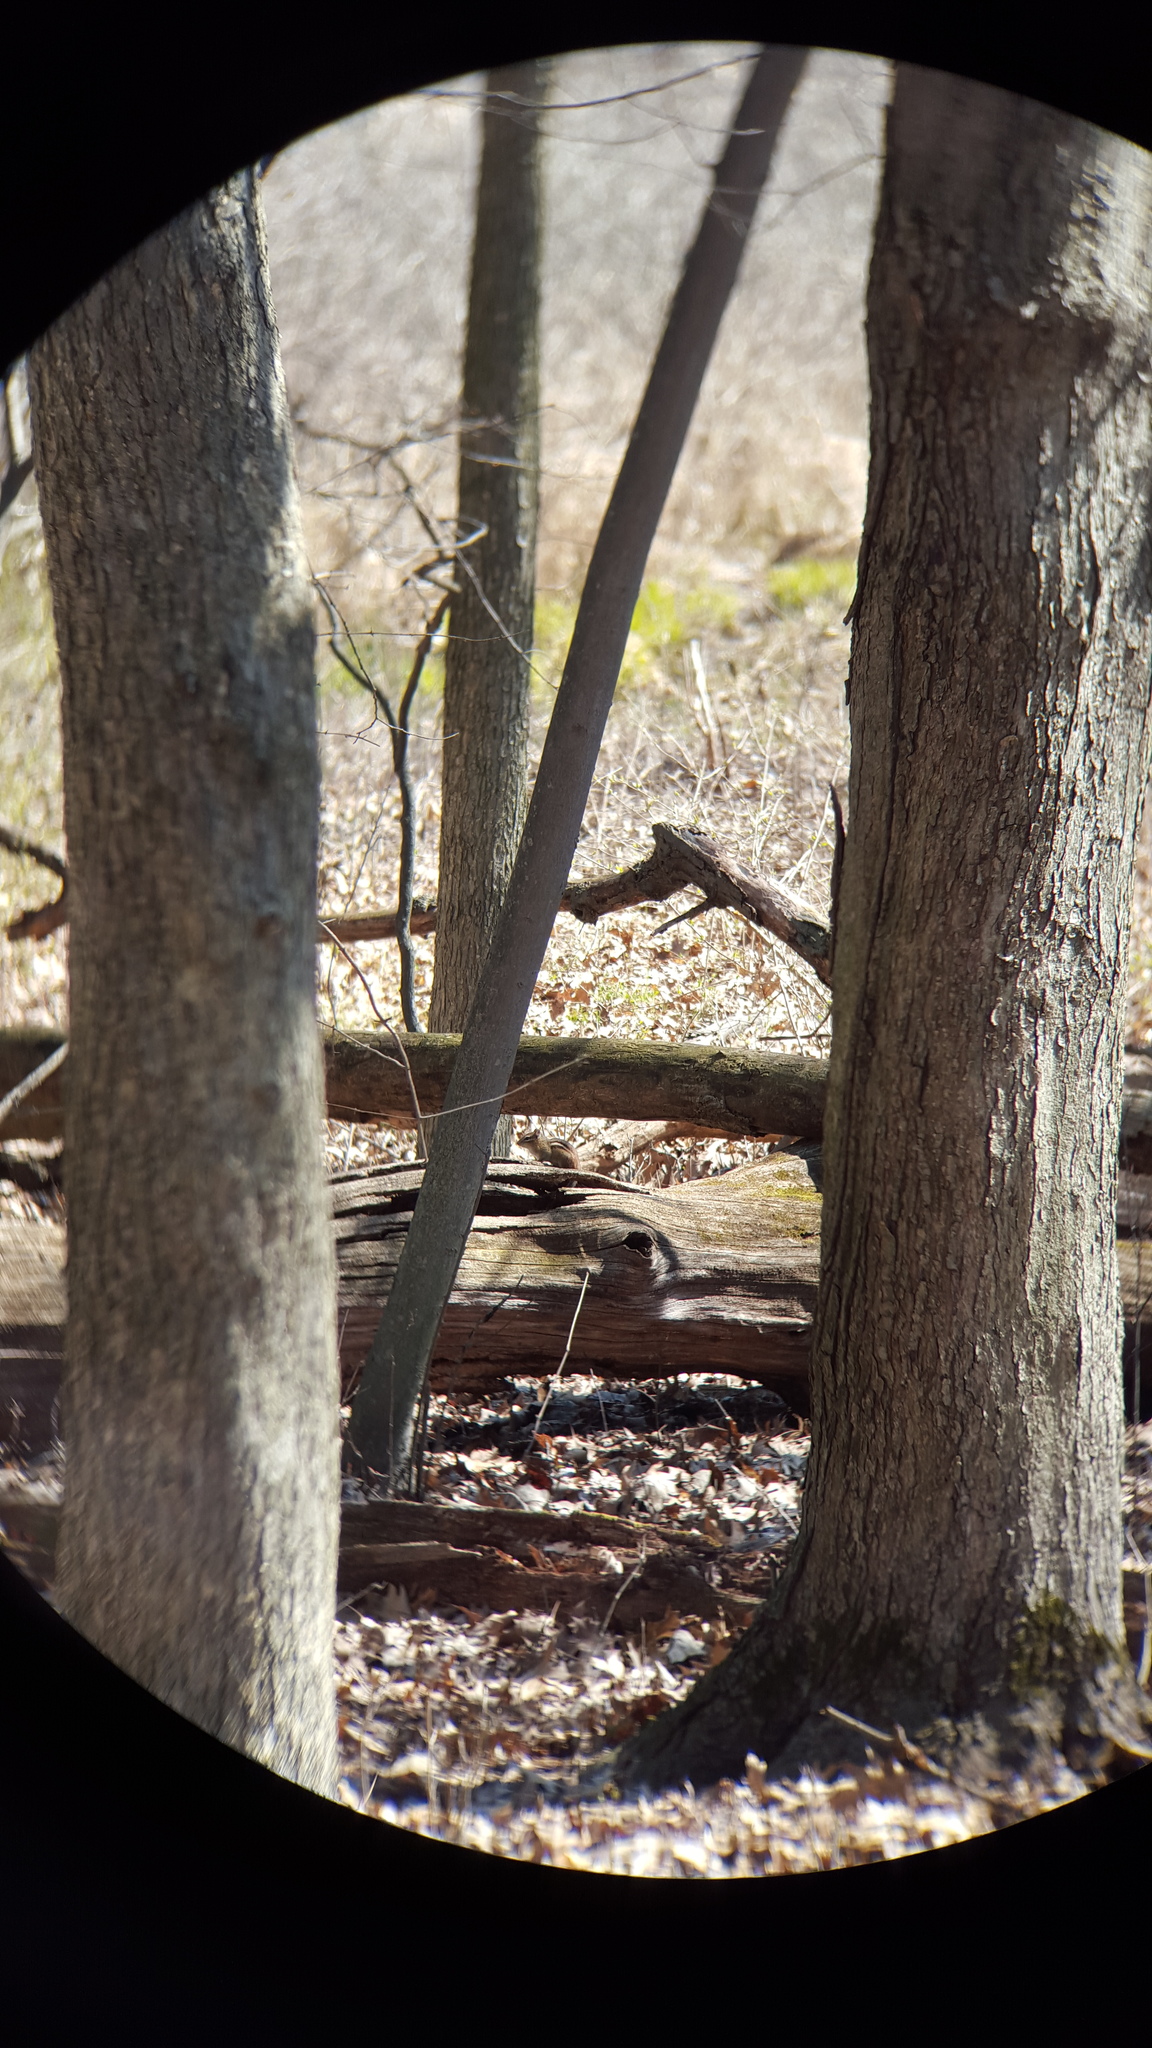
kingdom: Animalia
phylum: Chordata
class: Mammalia
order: Rodentia
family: Sciuridae
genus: Tamias
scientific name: Tamias striatus
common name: Eastern chipmunk
